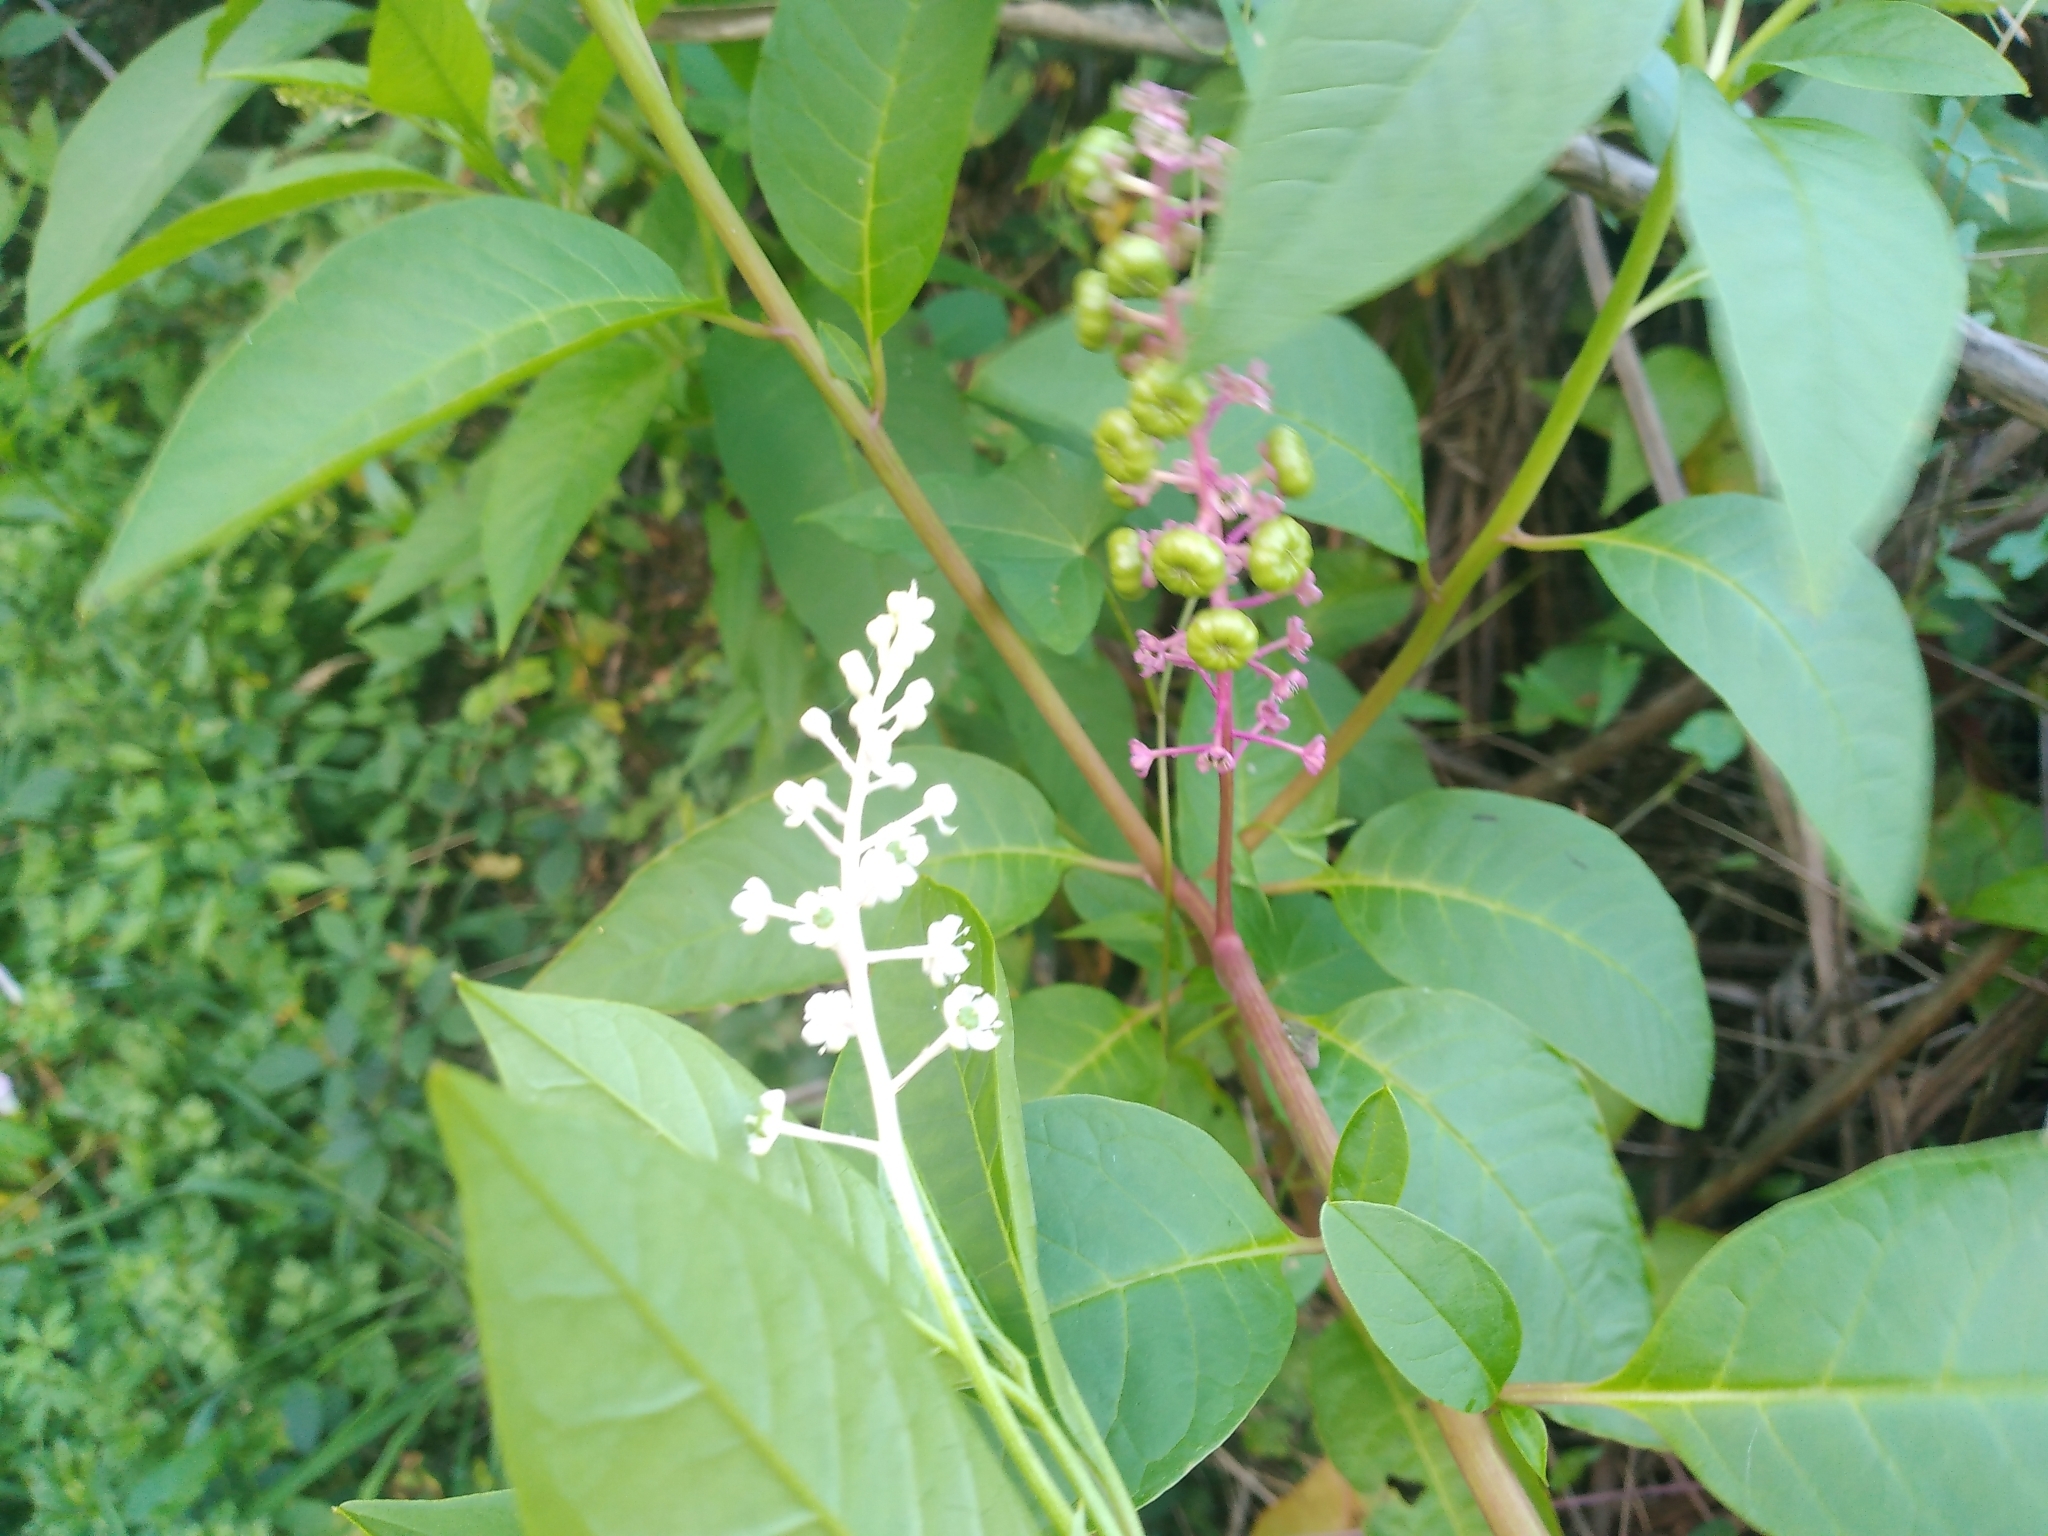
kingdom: Plantae
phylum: Tracheophyta
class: Magnoliopsida
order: Caryophyllales
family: Phytolaccaceae
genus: Phytolacca
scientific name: Phytolacca americana
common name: American pokeweed
